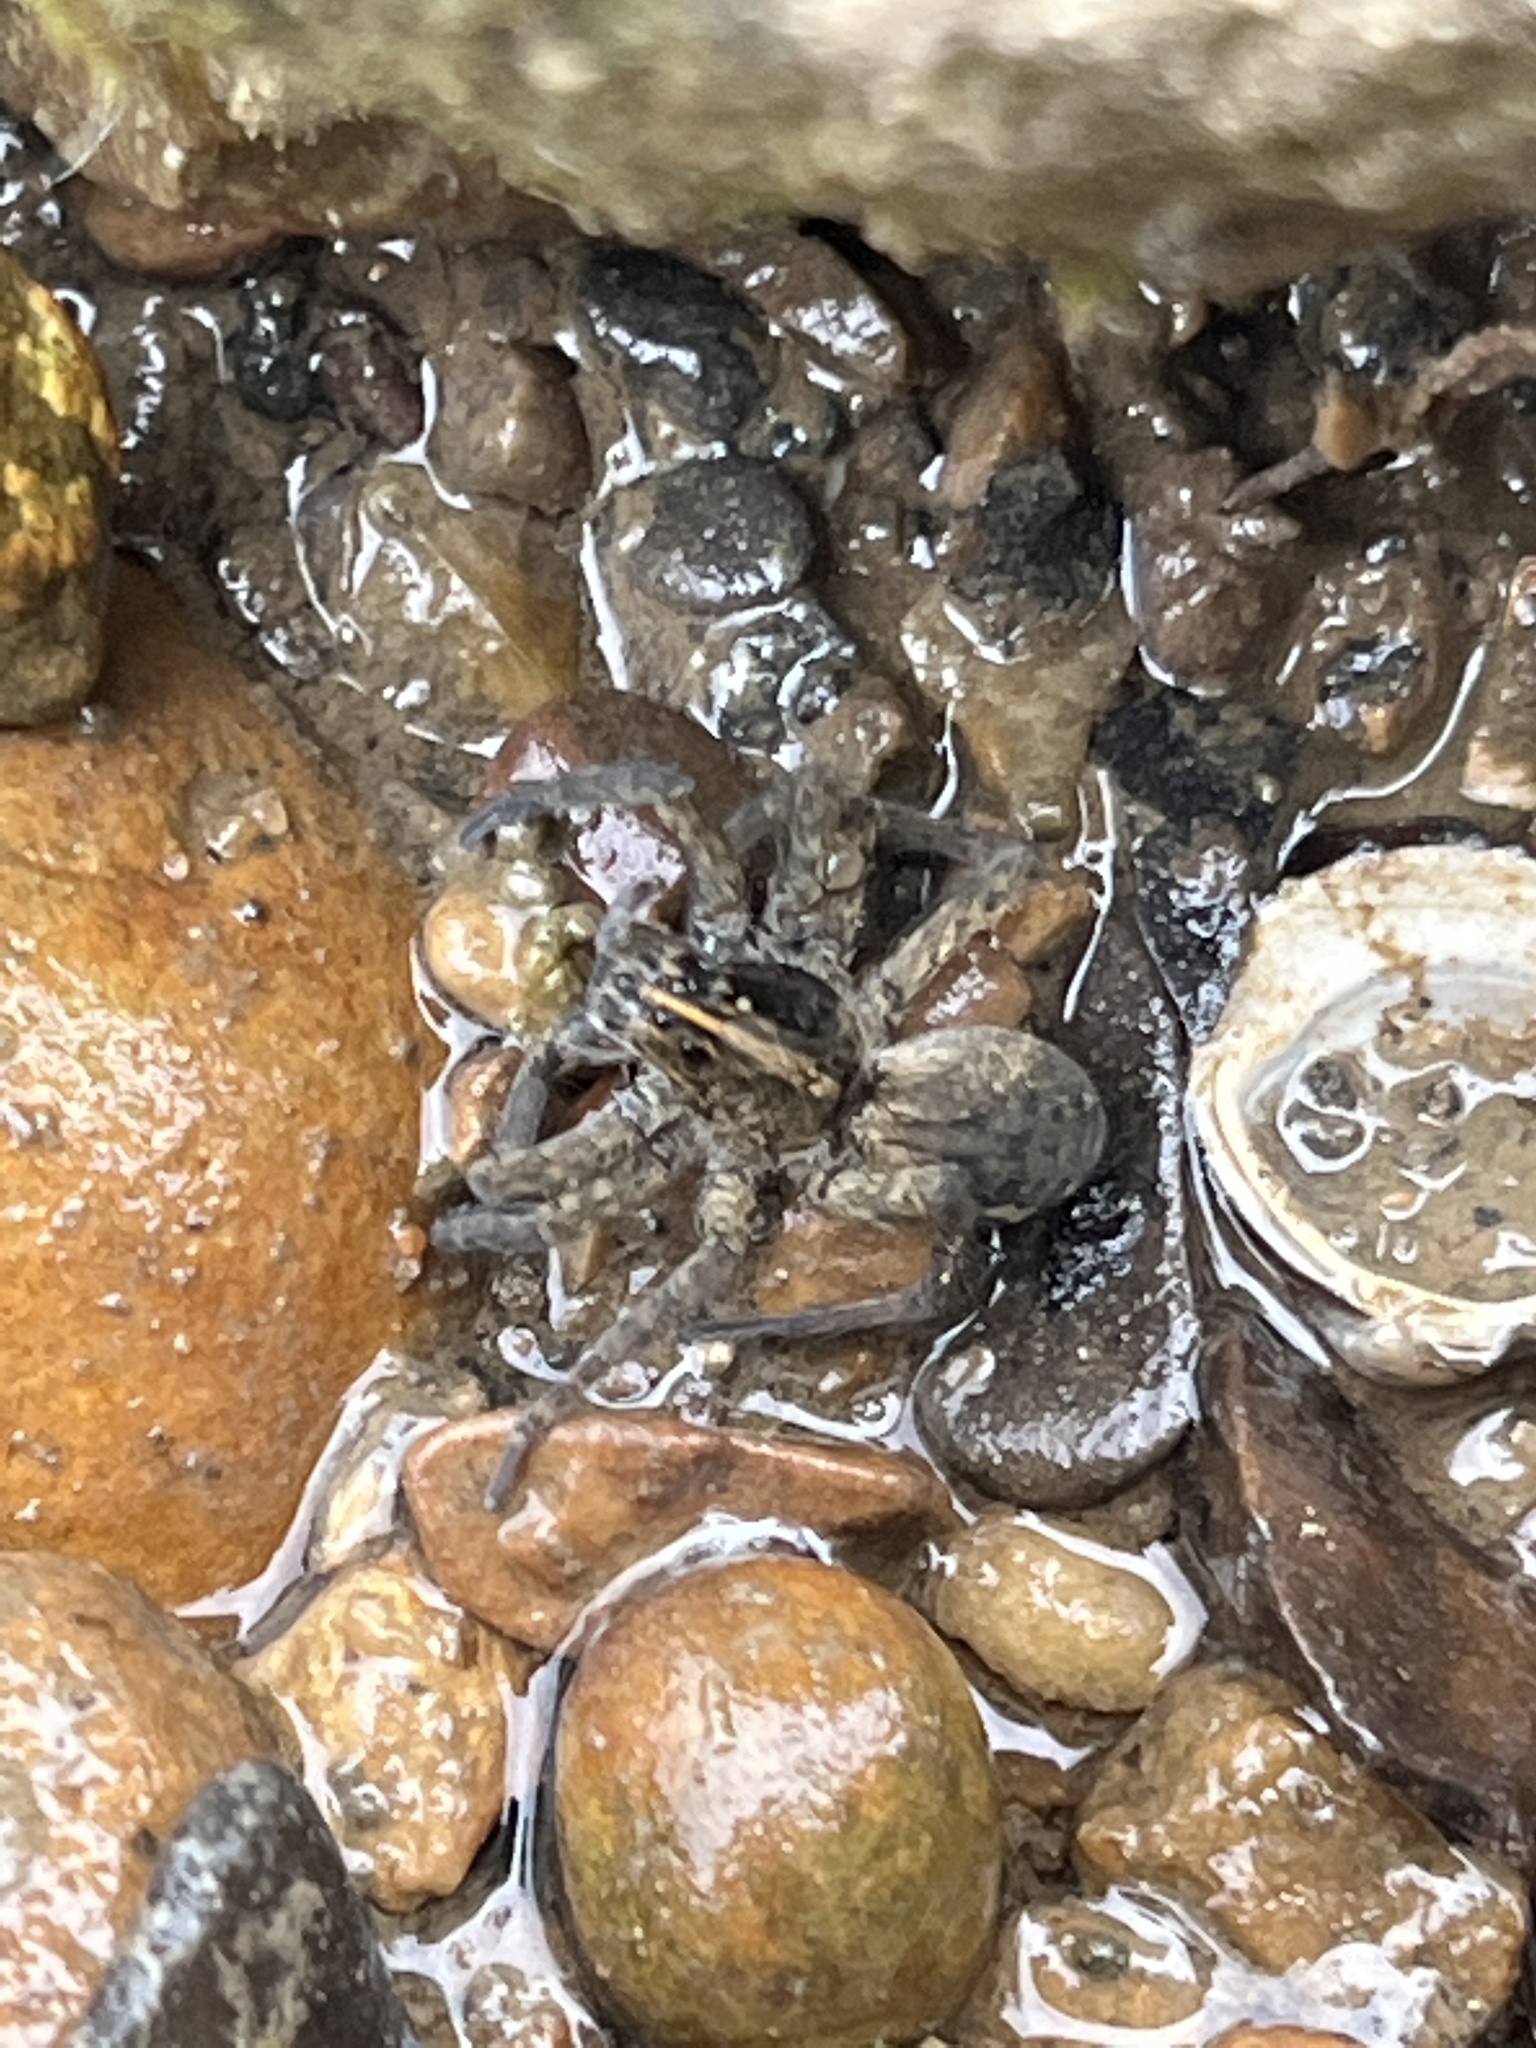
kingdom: Animalia
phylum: Arthropoda
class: Arachnida
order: Araneae
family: Lycosidae
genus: Tigrosa
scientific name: Tigrosa helluo
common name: Wetland giant wolf spider
